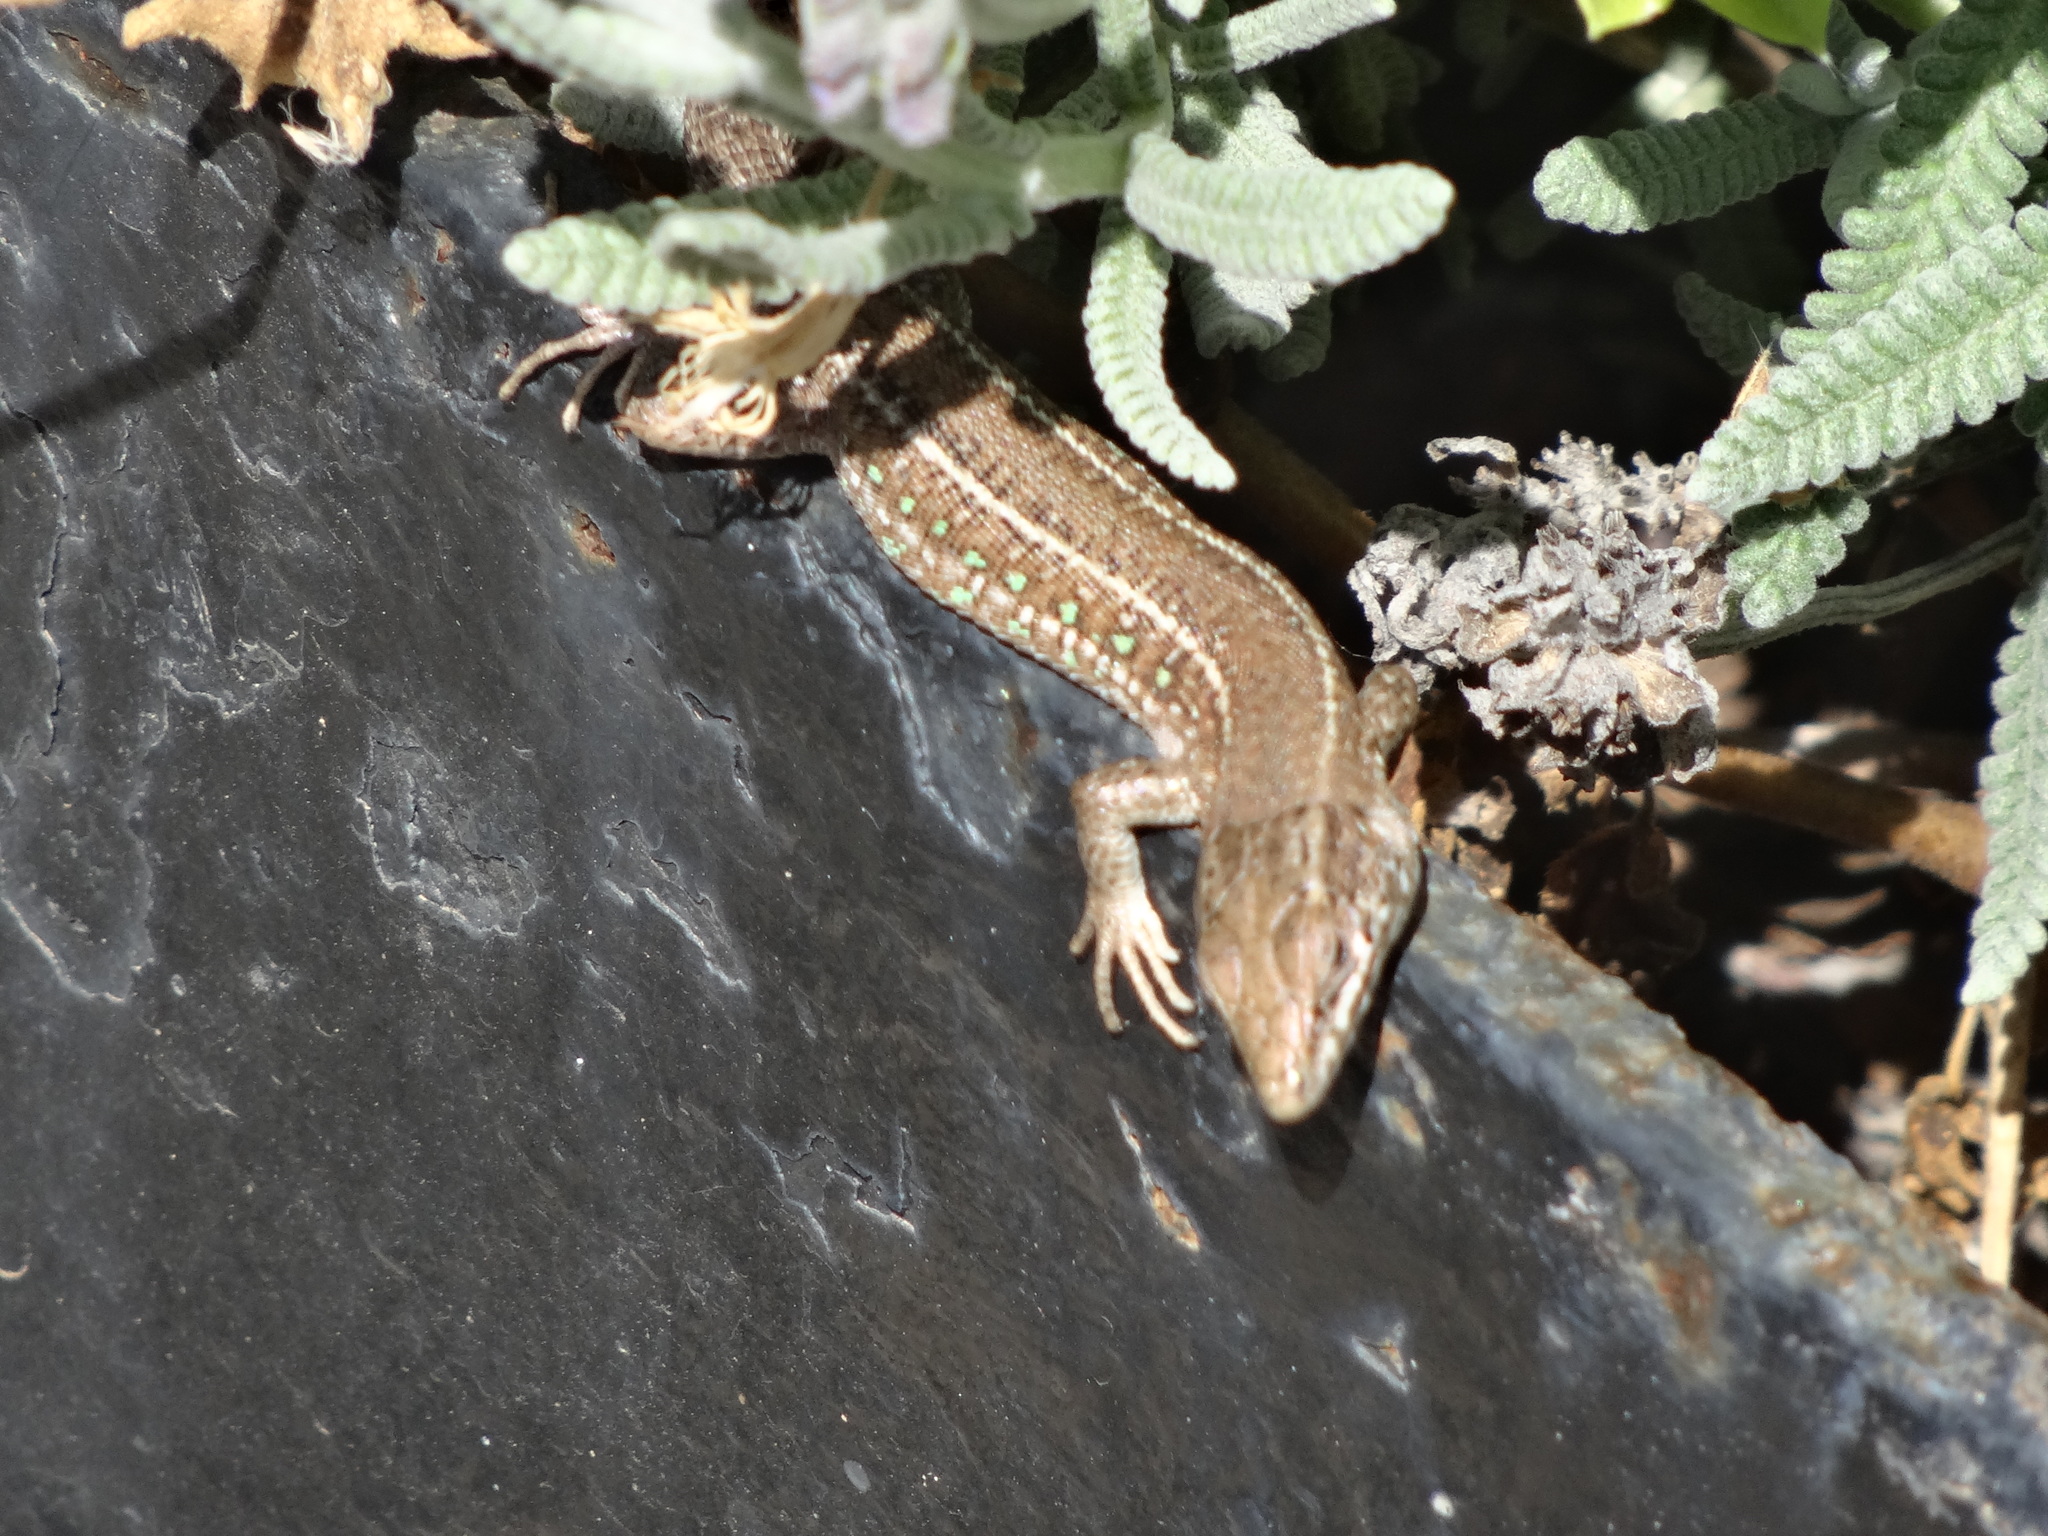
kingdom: Animalia
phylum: Chordata
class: Squamata
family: Lacertidae
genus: Gallotia
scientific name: Gallotia atlantica
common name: Atlantic lizard
